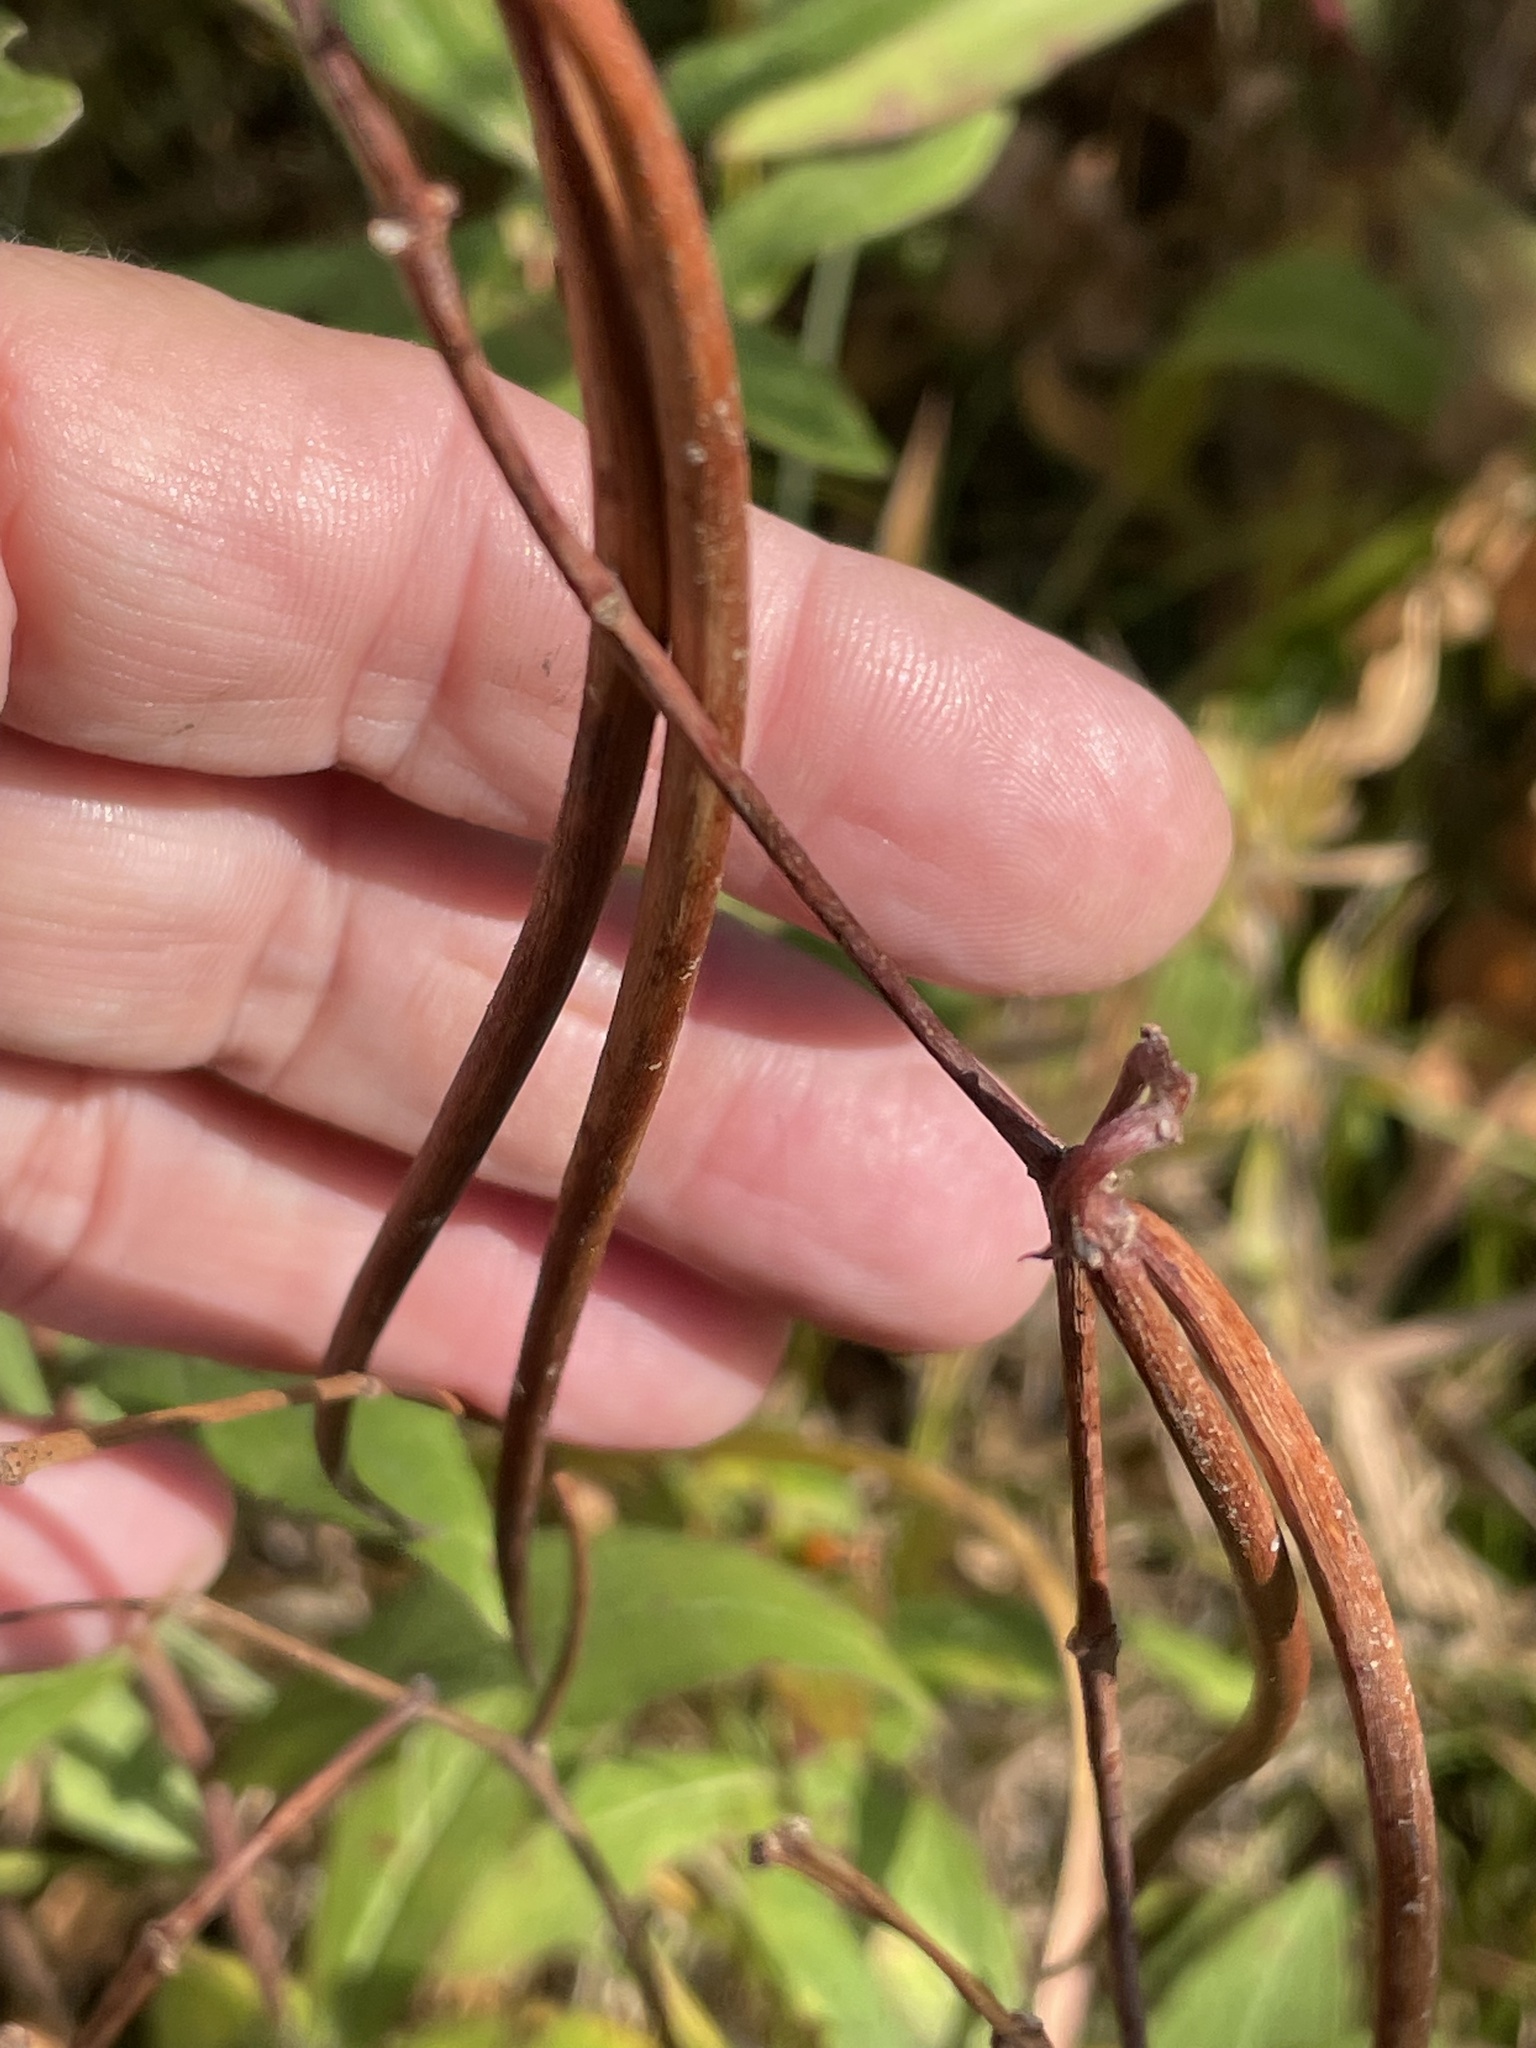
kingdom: Plantae
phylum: Tracheophyta
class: Magnoliopsida
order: Gentianales
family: Apocynaceae
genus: Apocynum
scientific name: Apocynum cannabinum
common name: Hemp dogbane
